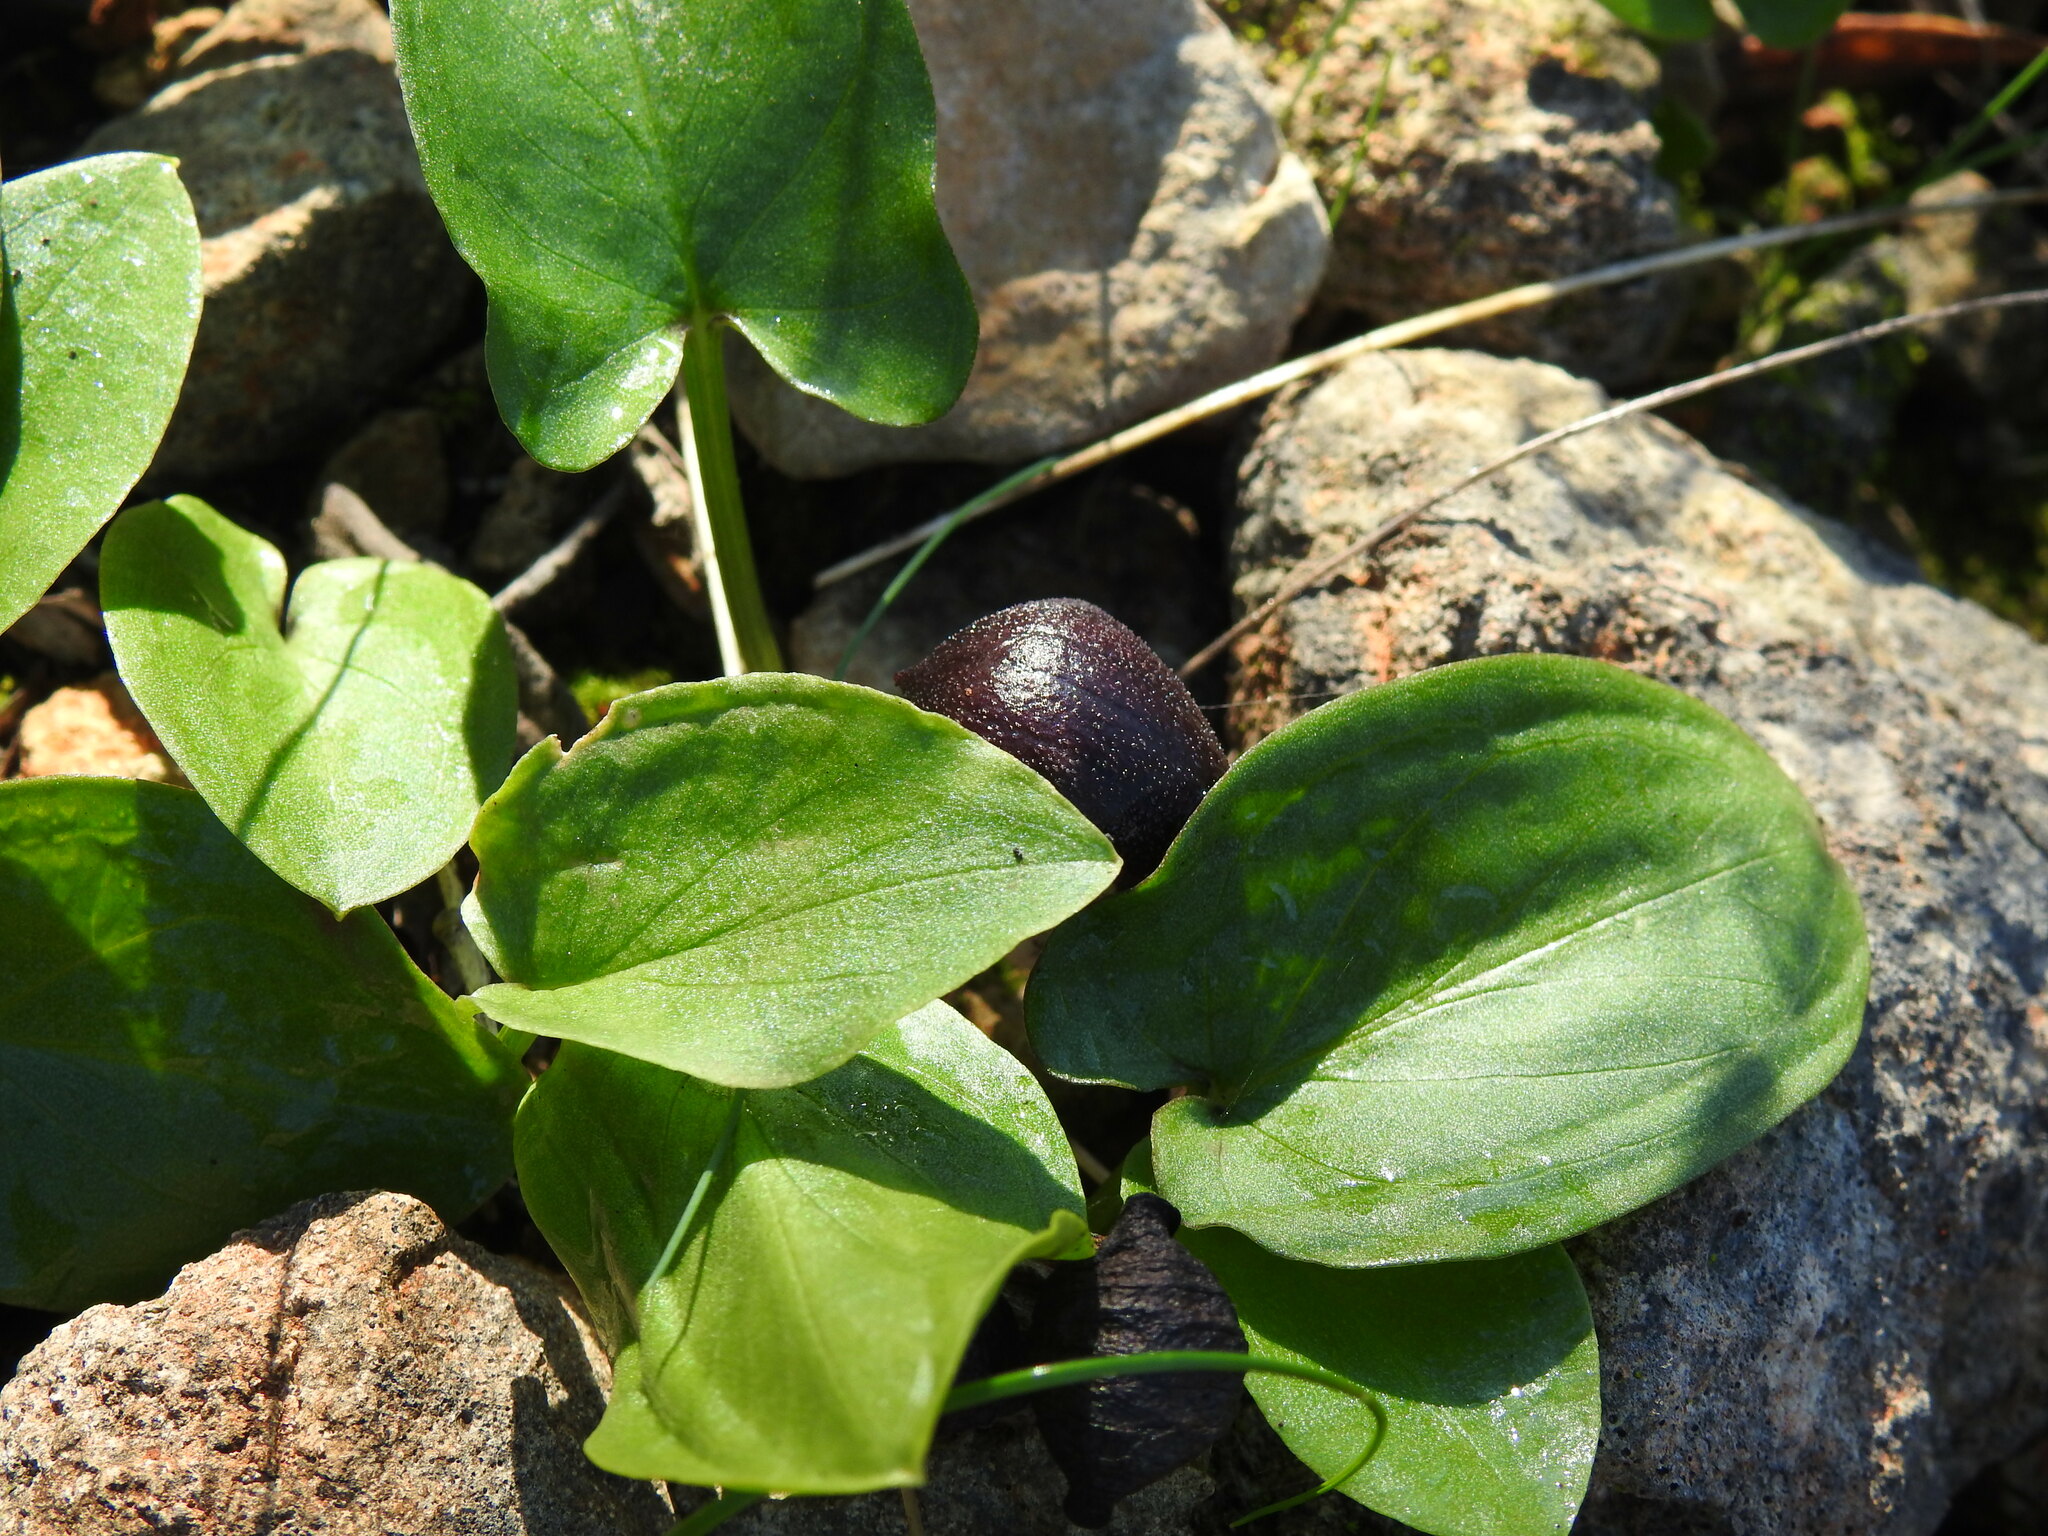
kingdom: Plantae
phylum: Tracheophyta
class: Liliopsida
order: Alismatales
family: Araceae
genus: Arisarum
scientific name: Arisarum simorrhinum
